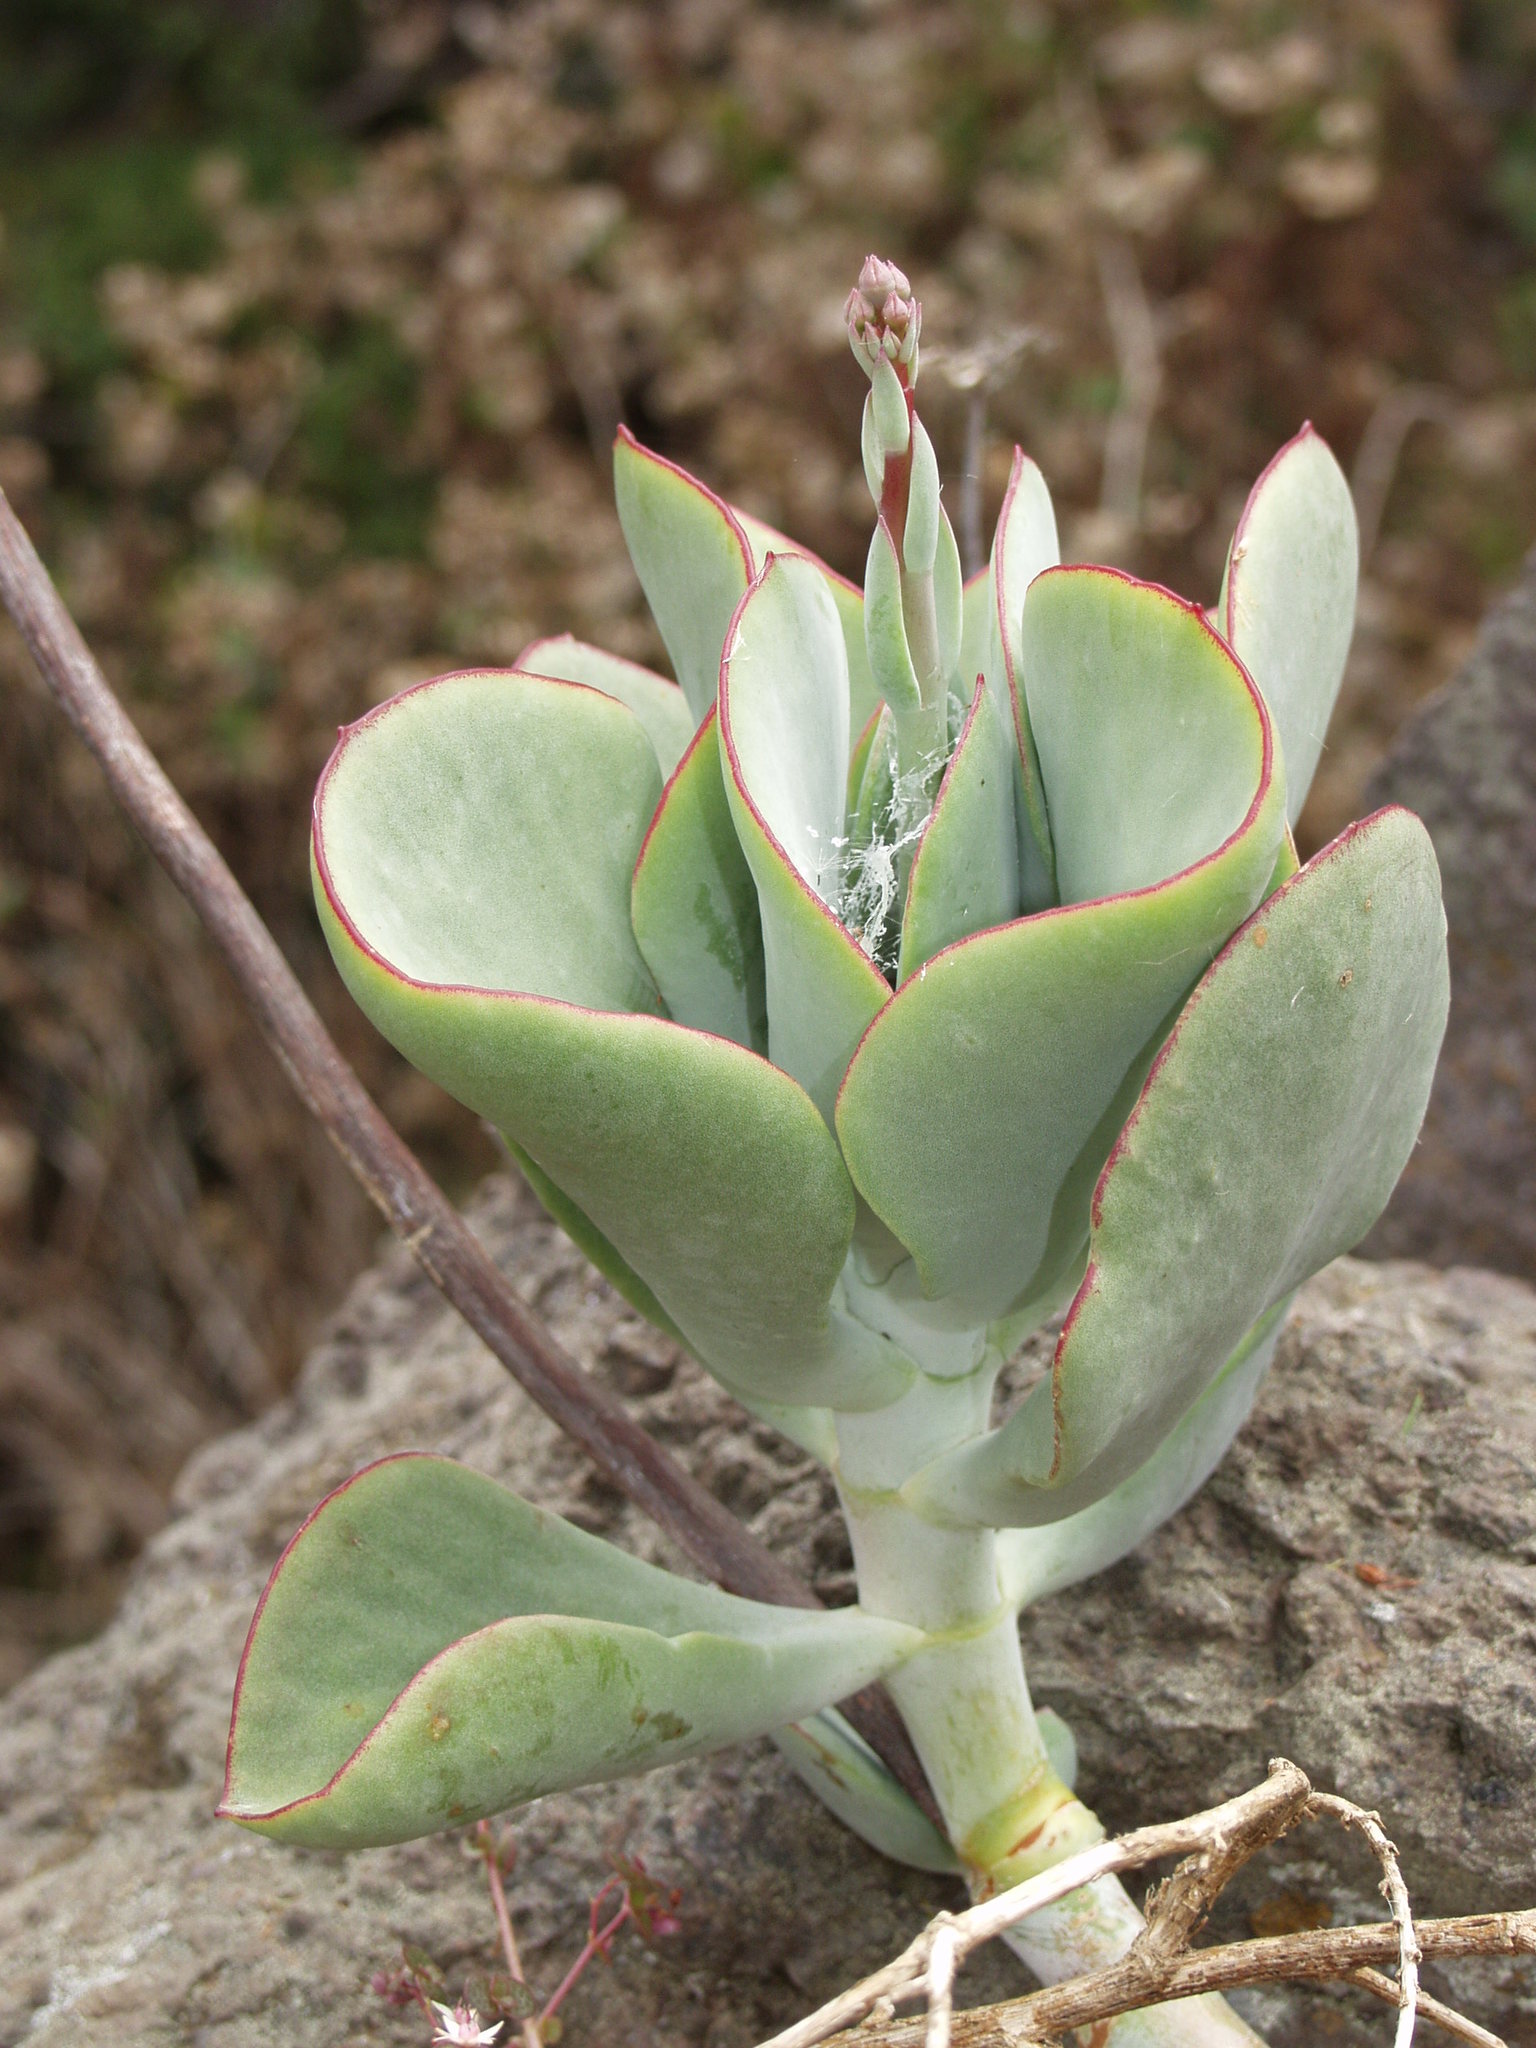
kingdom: Plantae
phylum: Tracheophyta
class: Magnoliopsida
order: Saxifragales
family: Crassulaceae
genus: Cotyledon
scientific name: Cotyledon orbiculata
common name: Pig's ear
